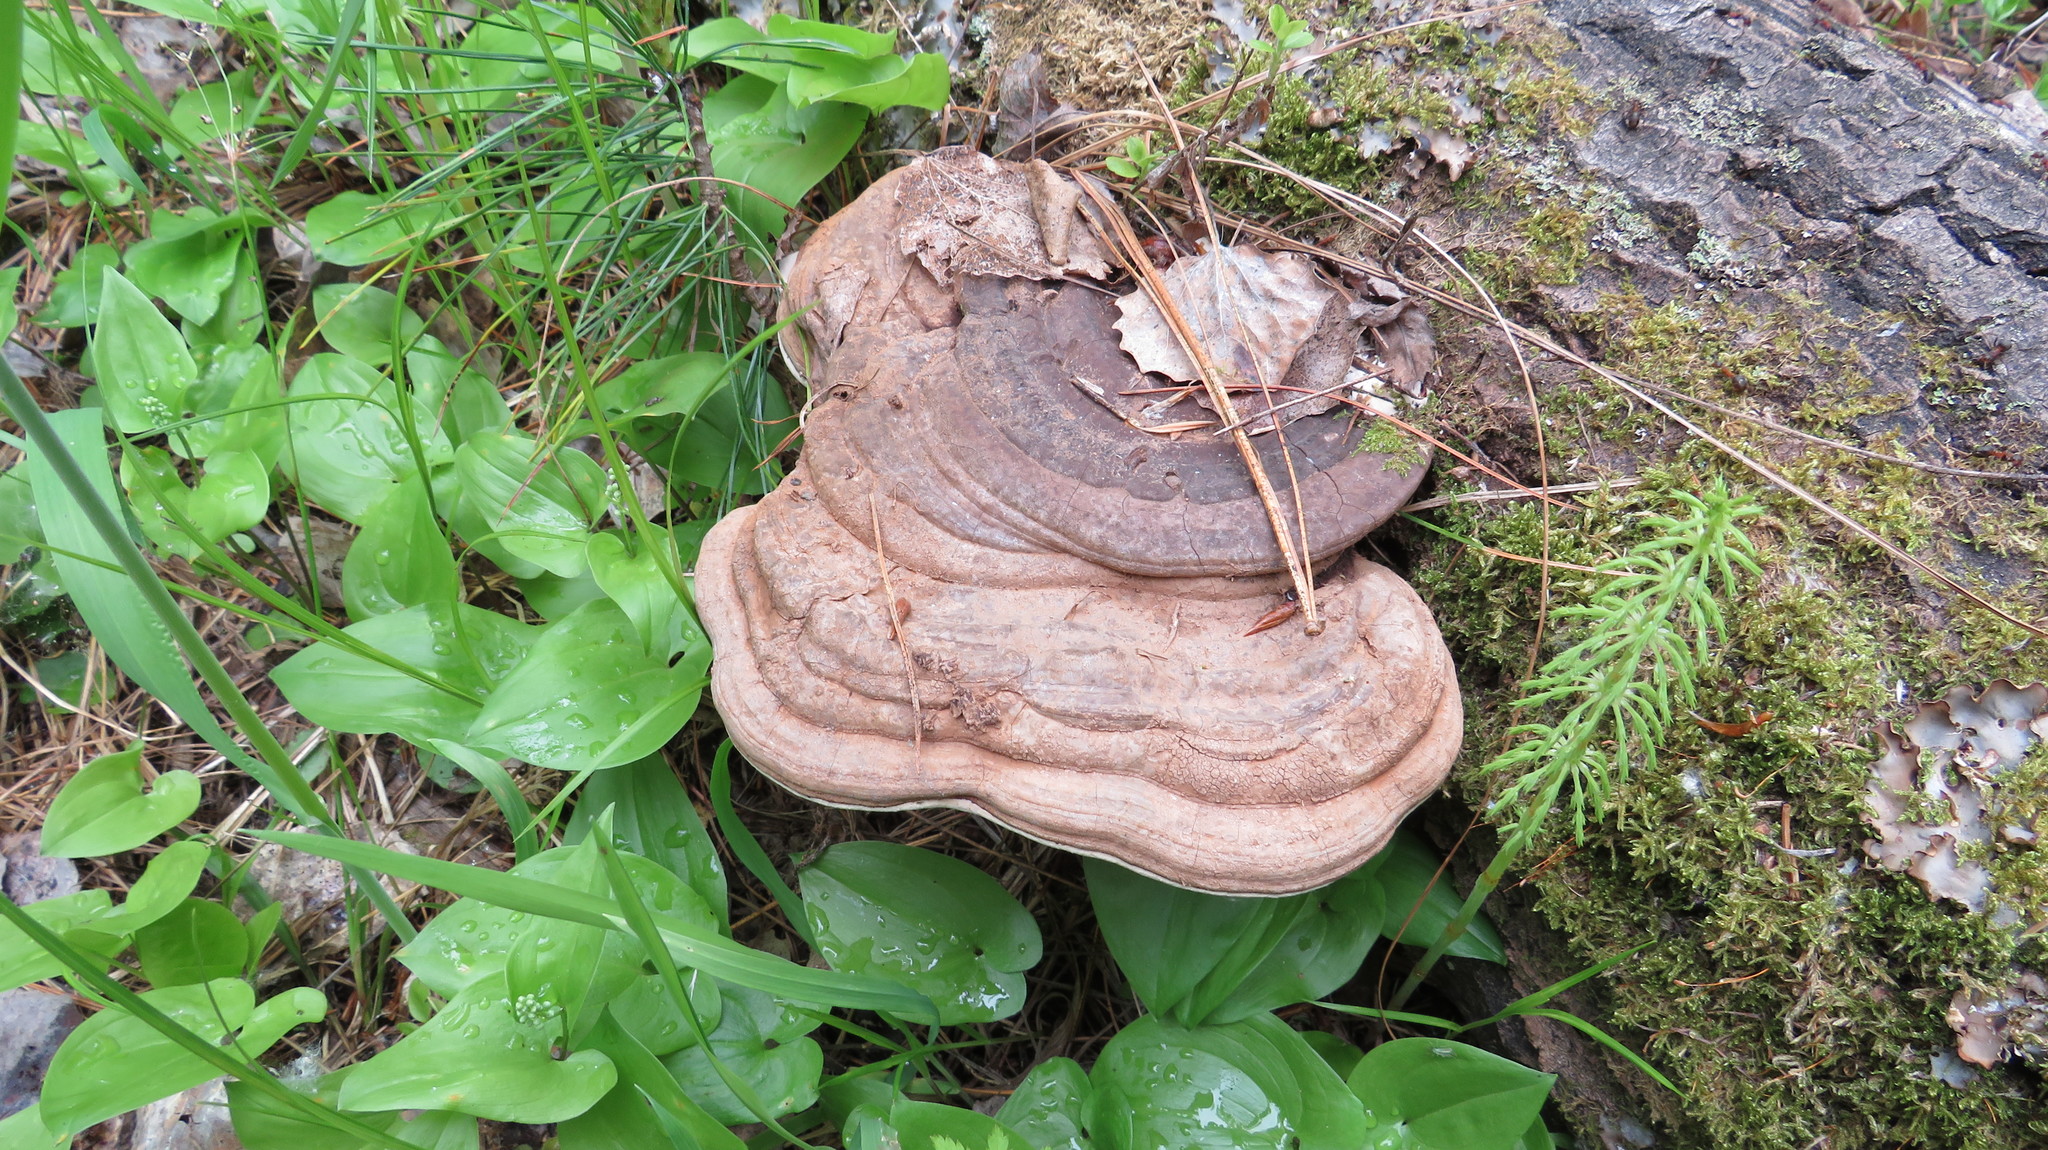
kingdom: Fungi
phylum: Basidiomycota
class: Agaricomycetes
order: Polyporales
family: Polyporaceae
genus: Ganoderma
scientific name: Ganoderma applanatum
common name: Artist's bracket
